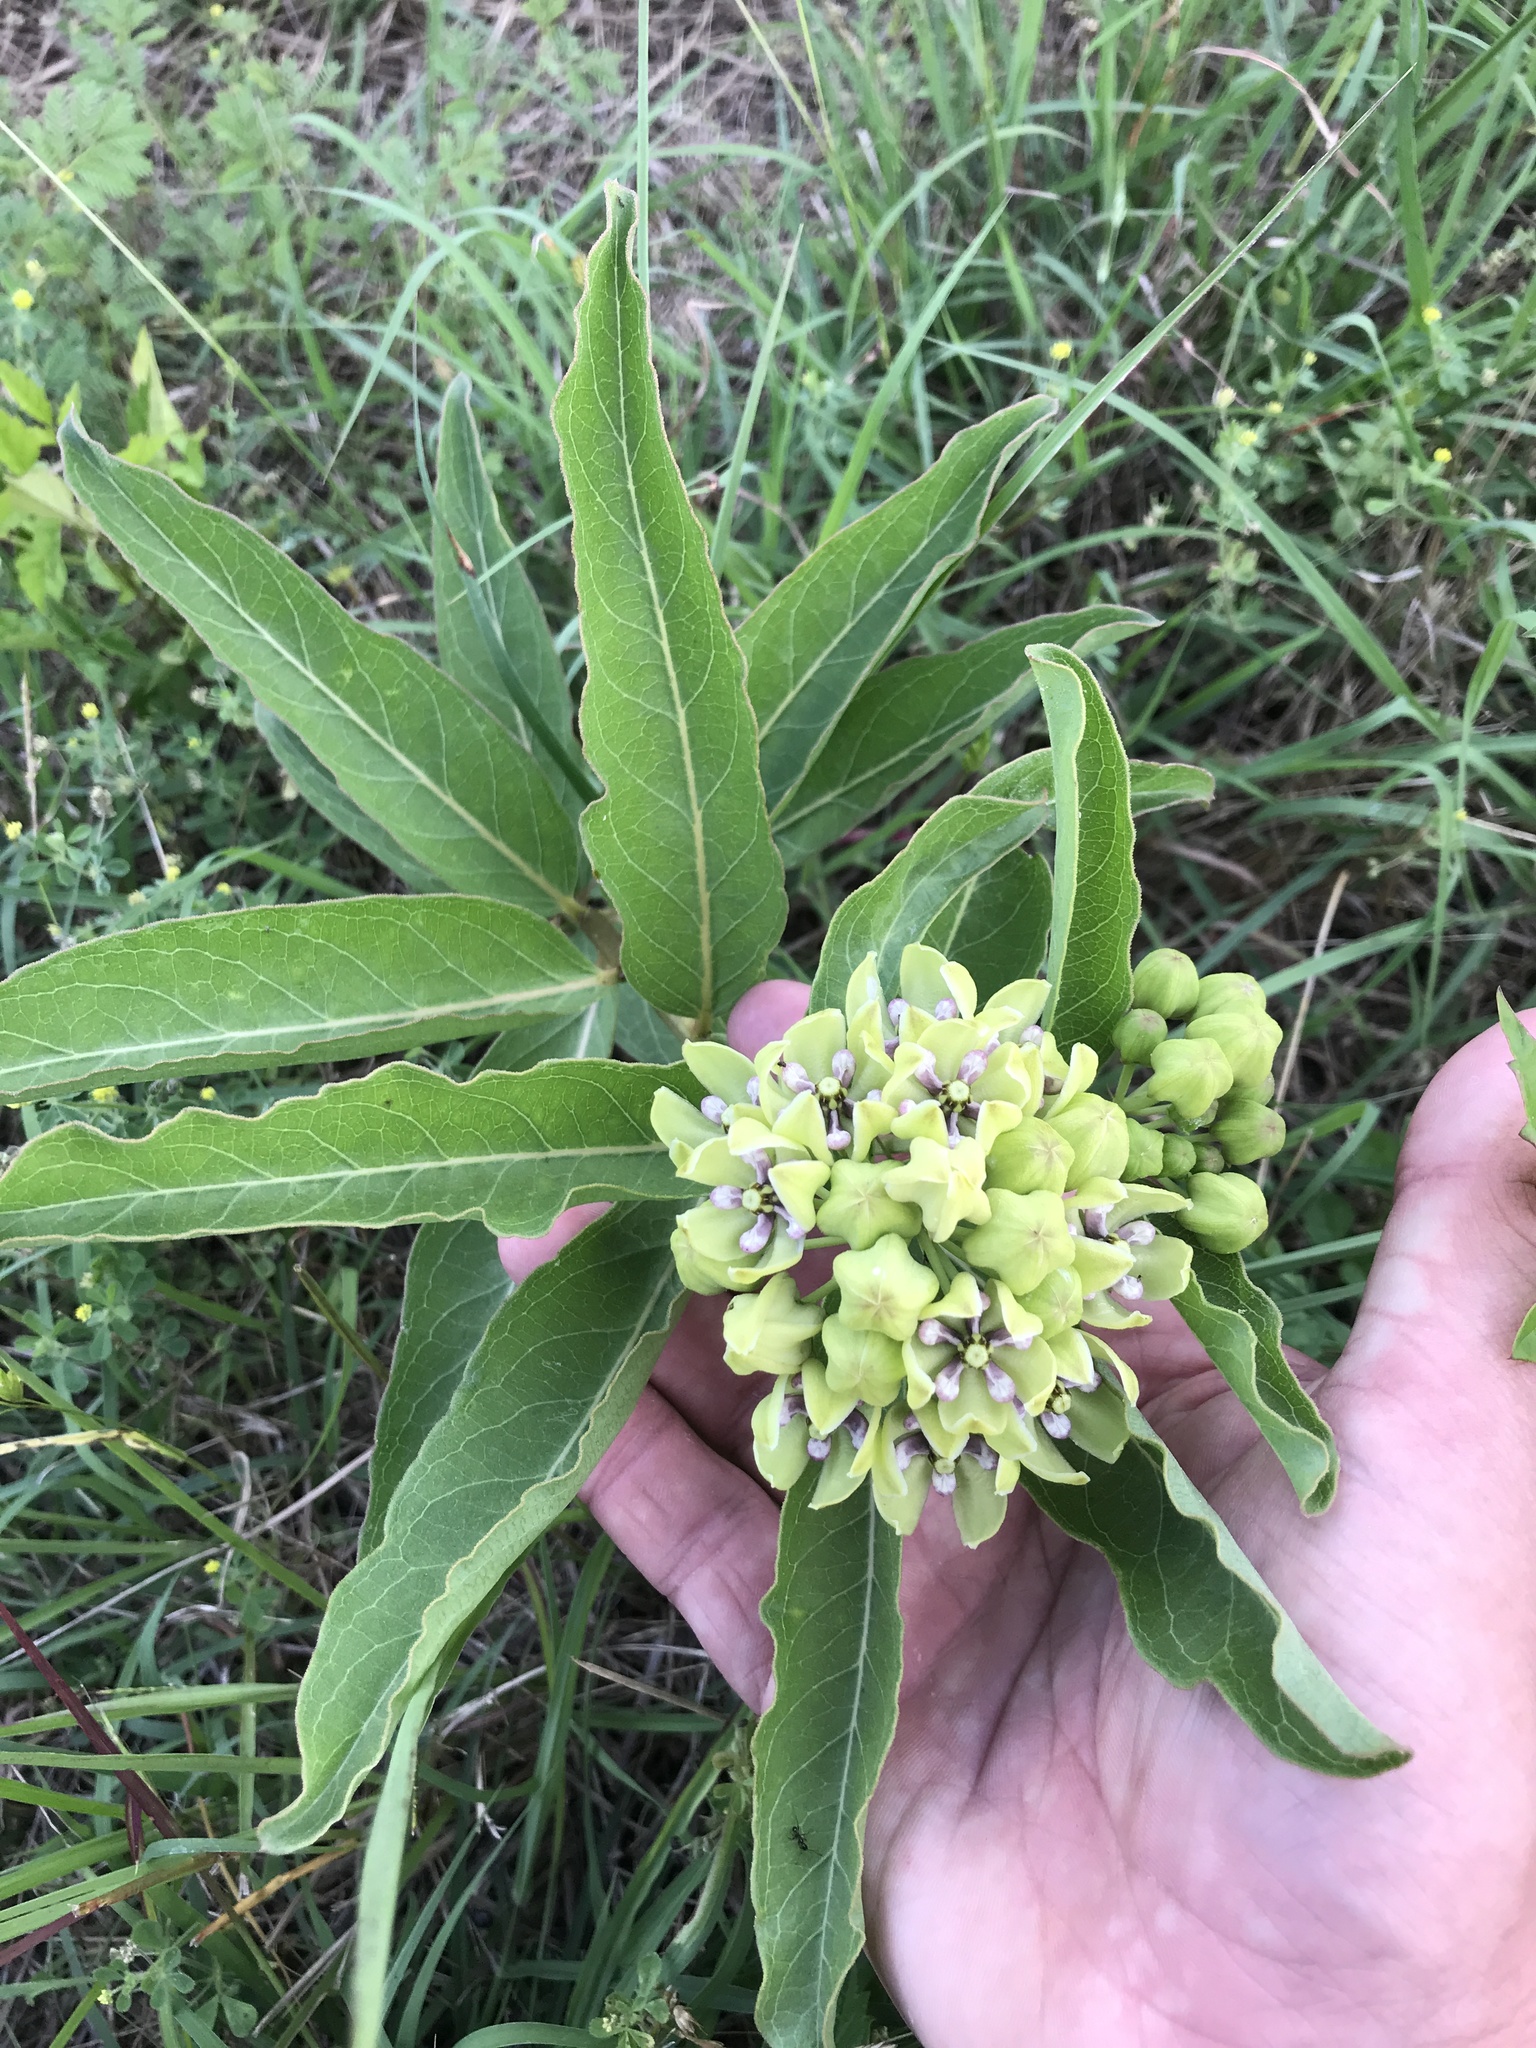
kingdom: Plantae
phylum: Tracheophyta
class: Magnoliopsida
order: Gentianales
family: Apocynaceae
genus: Asclepias
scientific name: Asclepias viridis
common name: Antelope-horns
